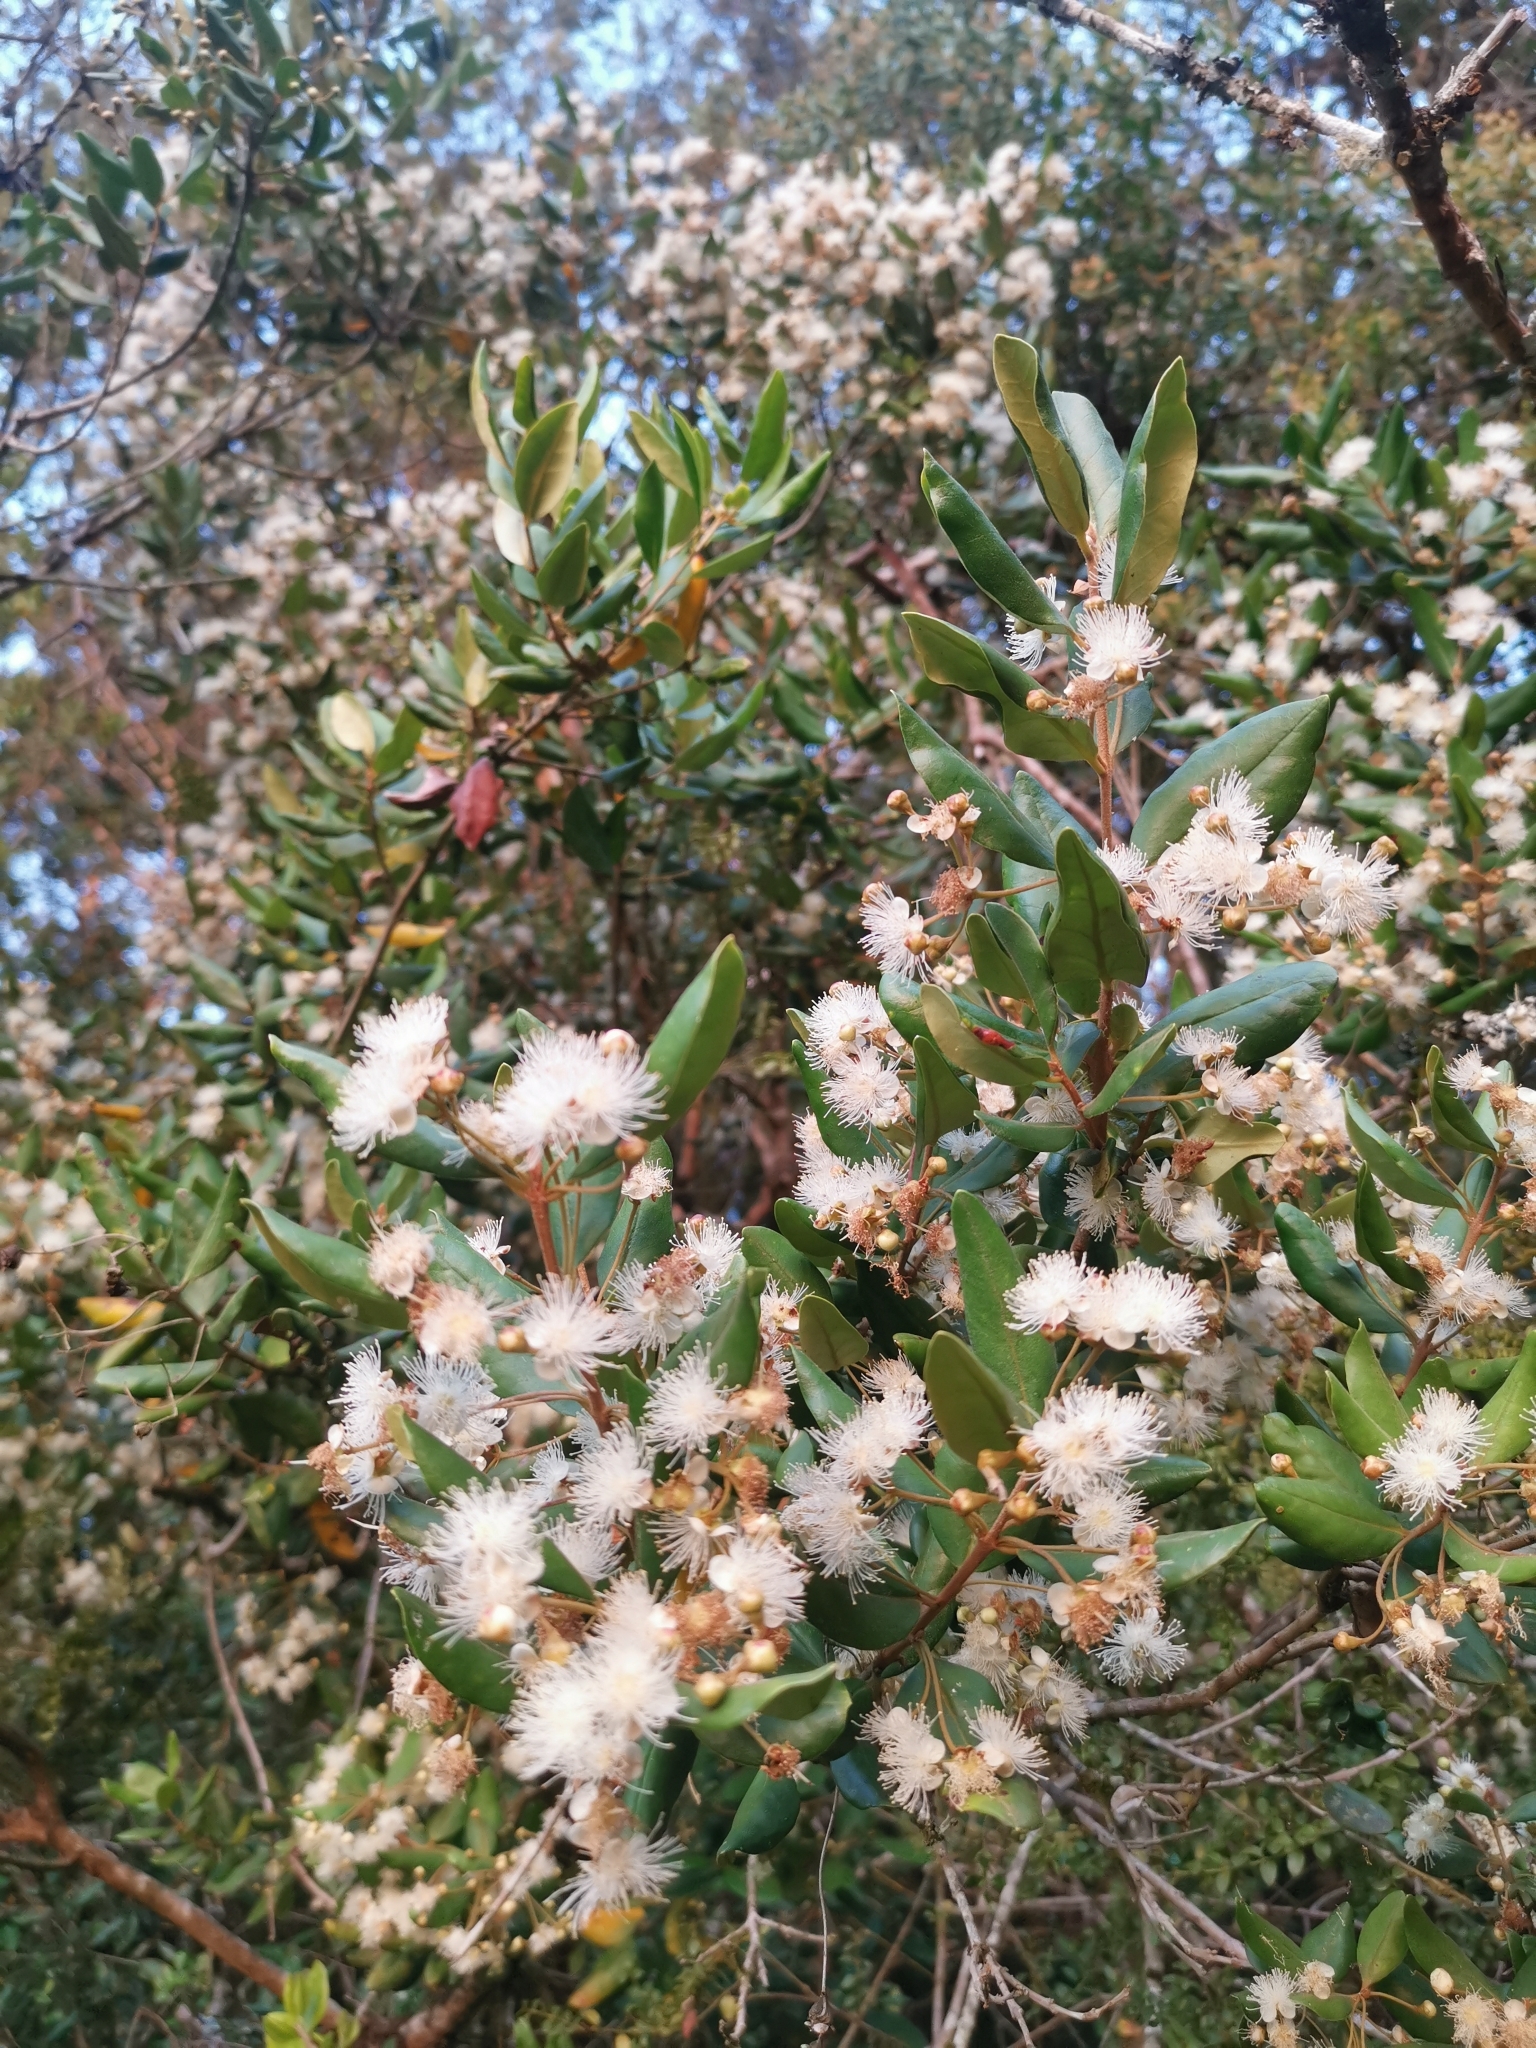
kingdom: Plantae
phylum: Tracheophyta
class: Magnoliopsida
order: Myrtales
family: Myrtaceae
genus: Myrceugenia
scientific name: Myrceugenia exsucca
